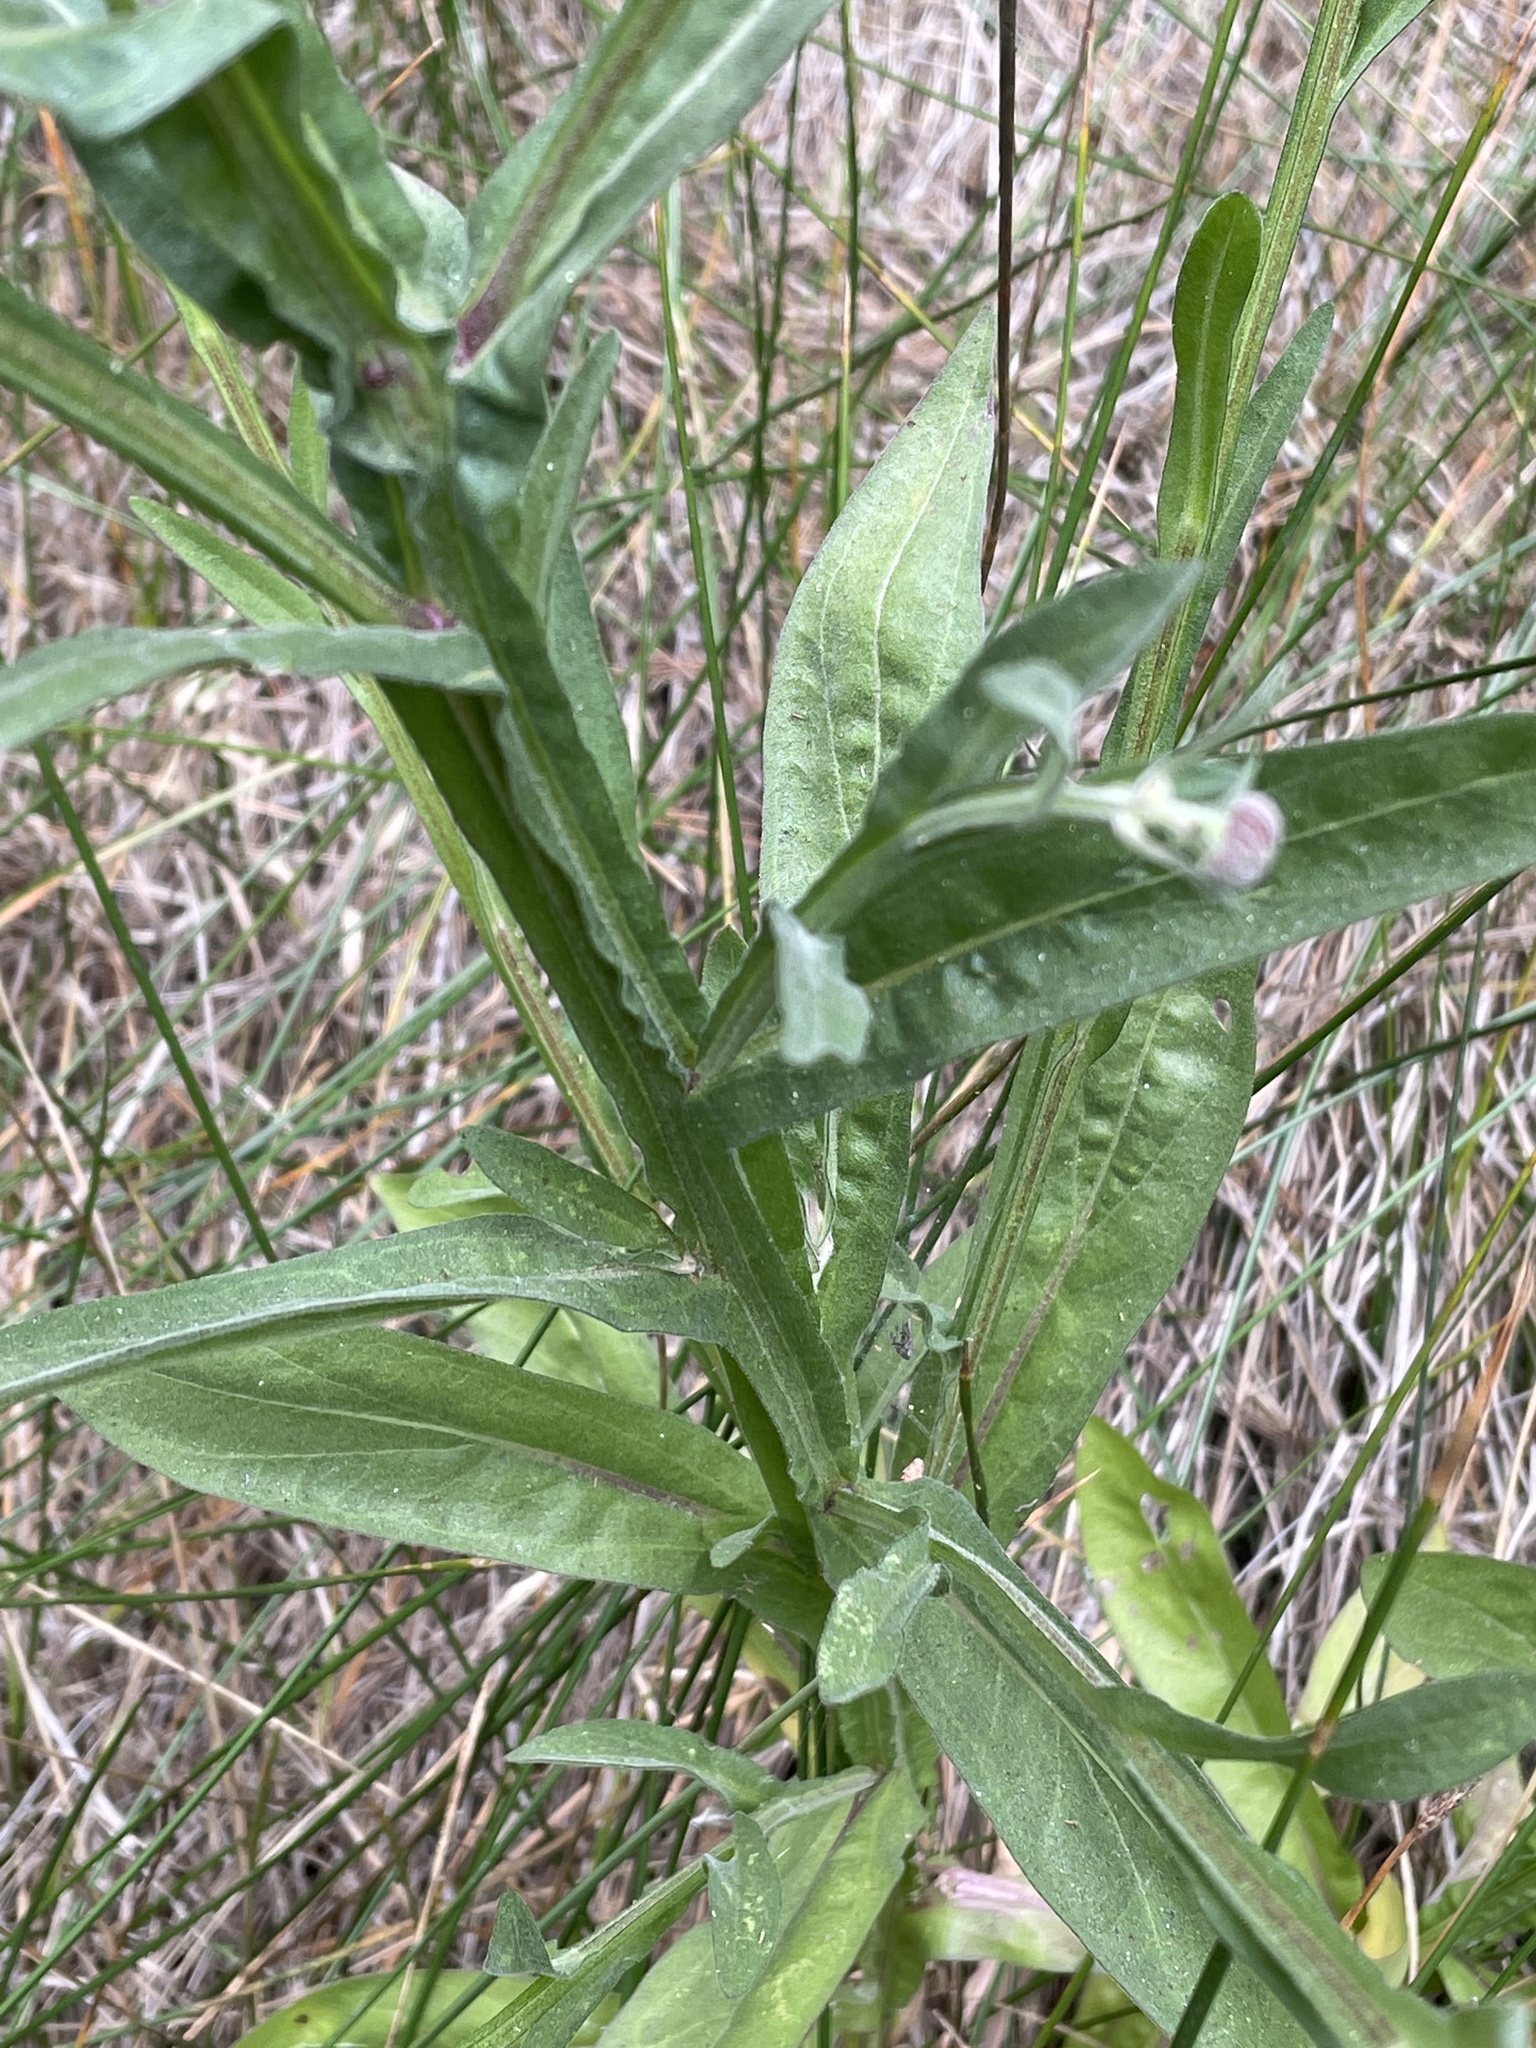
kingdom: Plantae
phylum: Tracheophyta
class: Magnoliopsida
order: Asterales
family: Asteraceae
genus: Helenium
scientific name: Helenium puberulum
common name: Sneezewort
